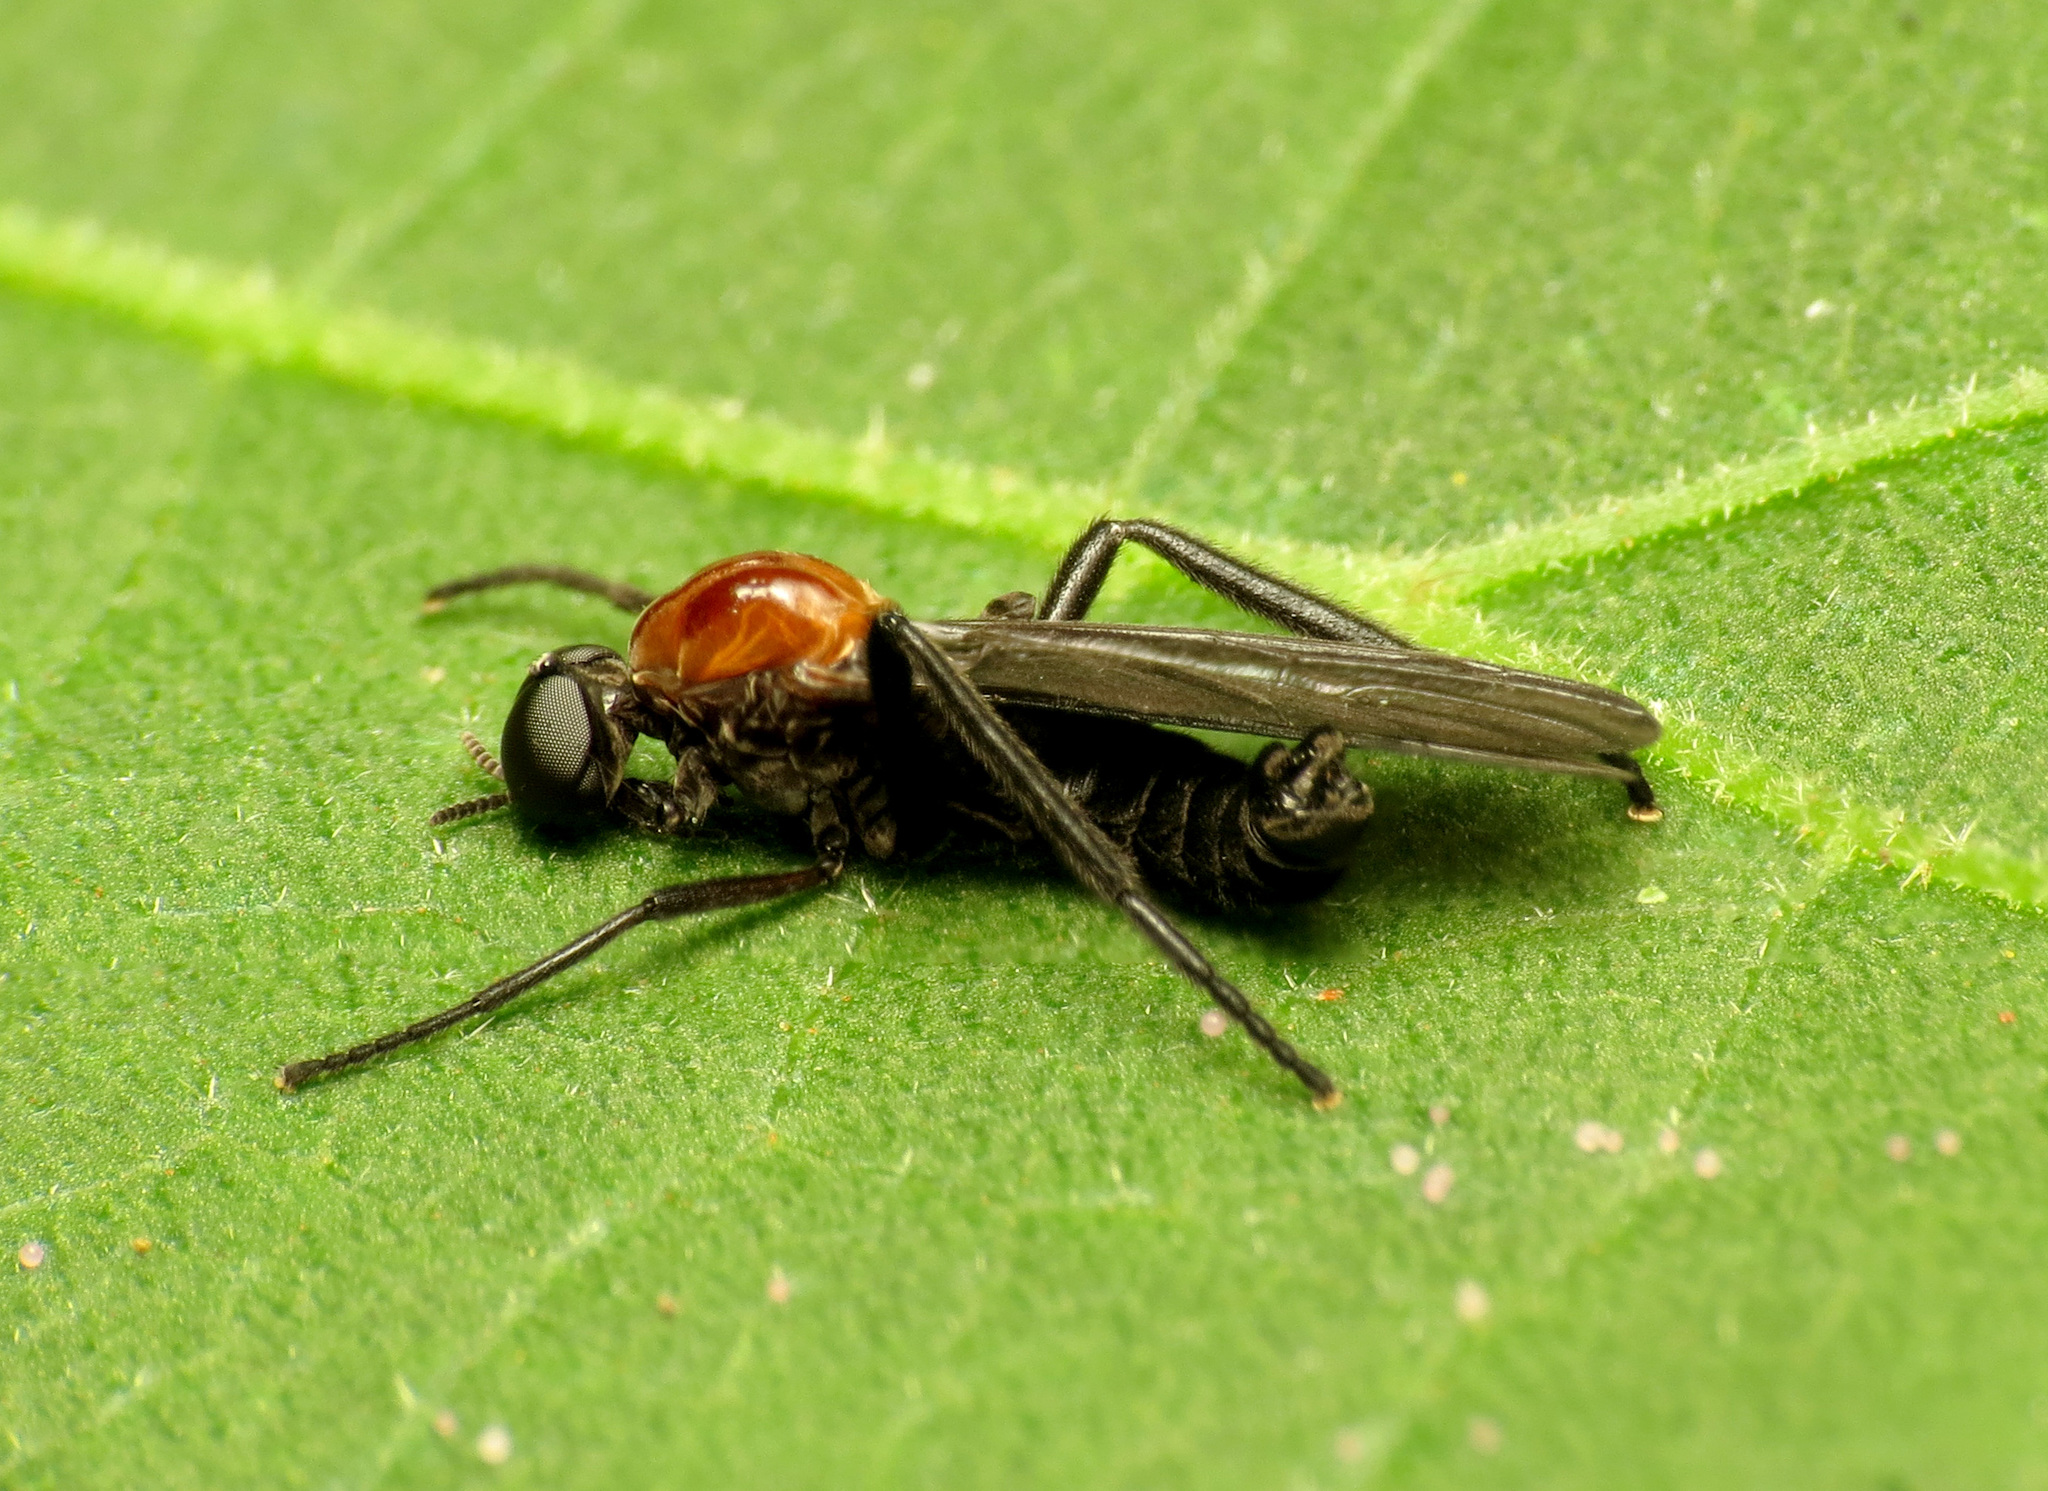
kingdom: Animalia
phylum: Arthropoda
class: Insecta
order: Diptera
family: Bibionidae
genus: Plecia
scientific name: Plecia nearctica
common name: March fly
